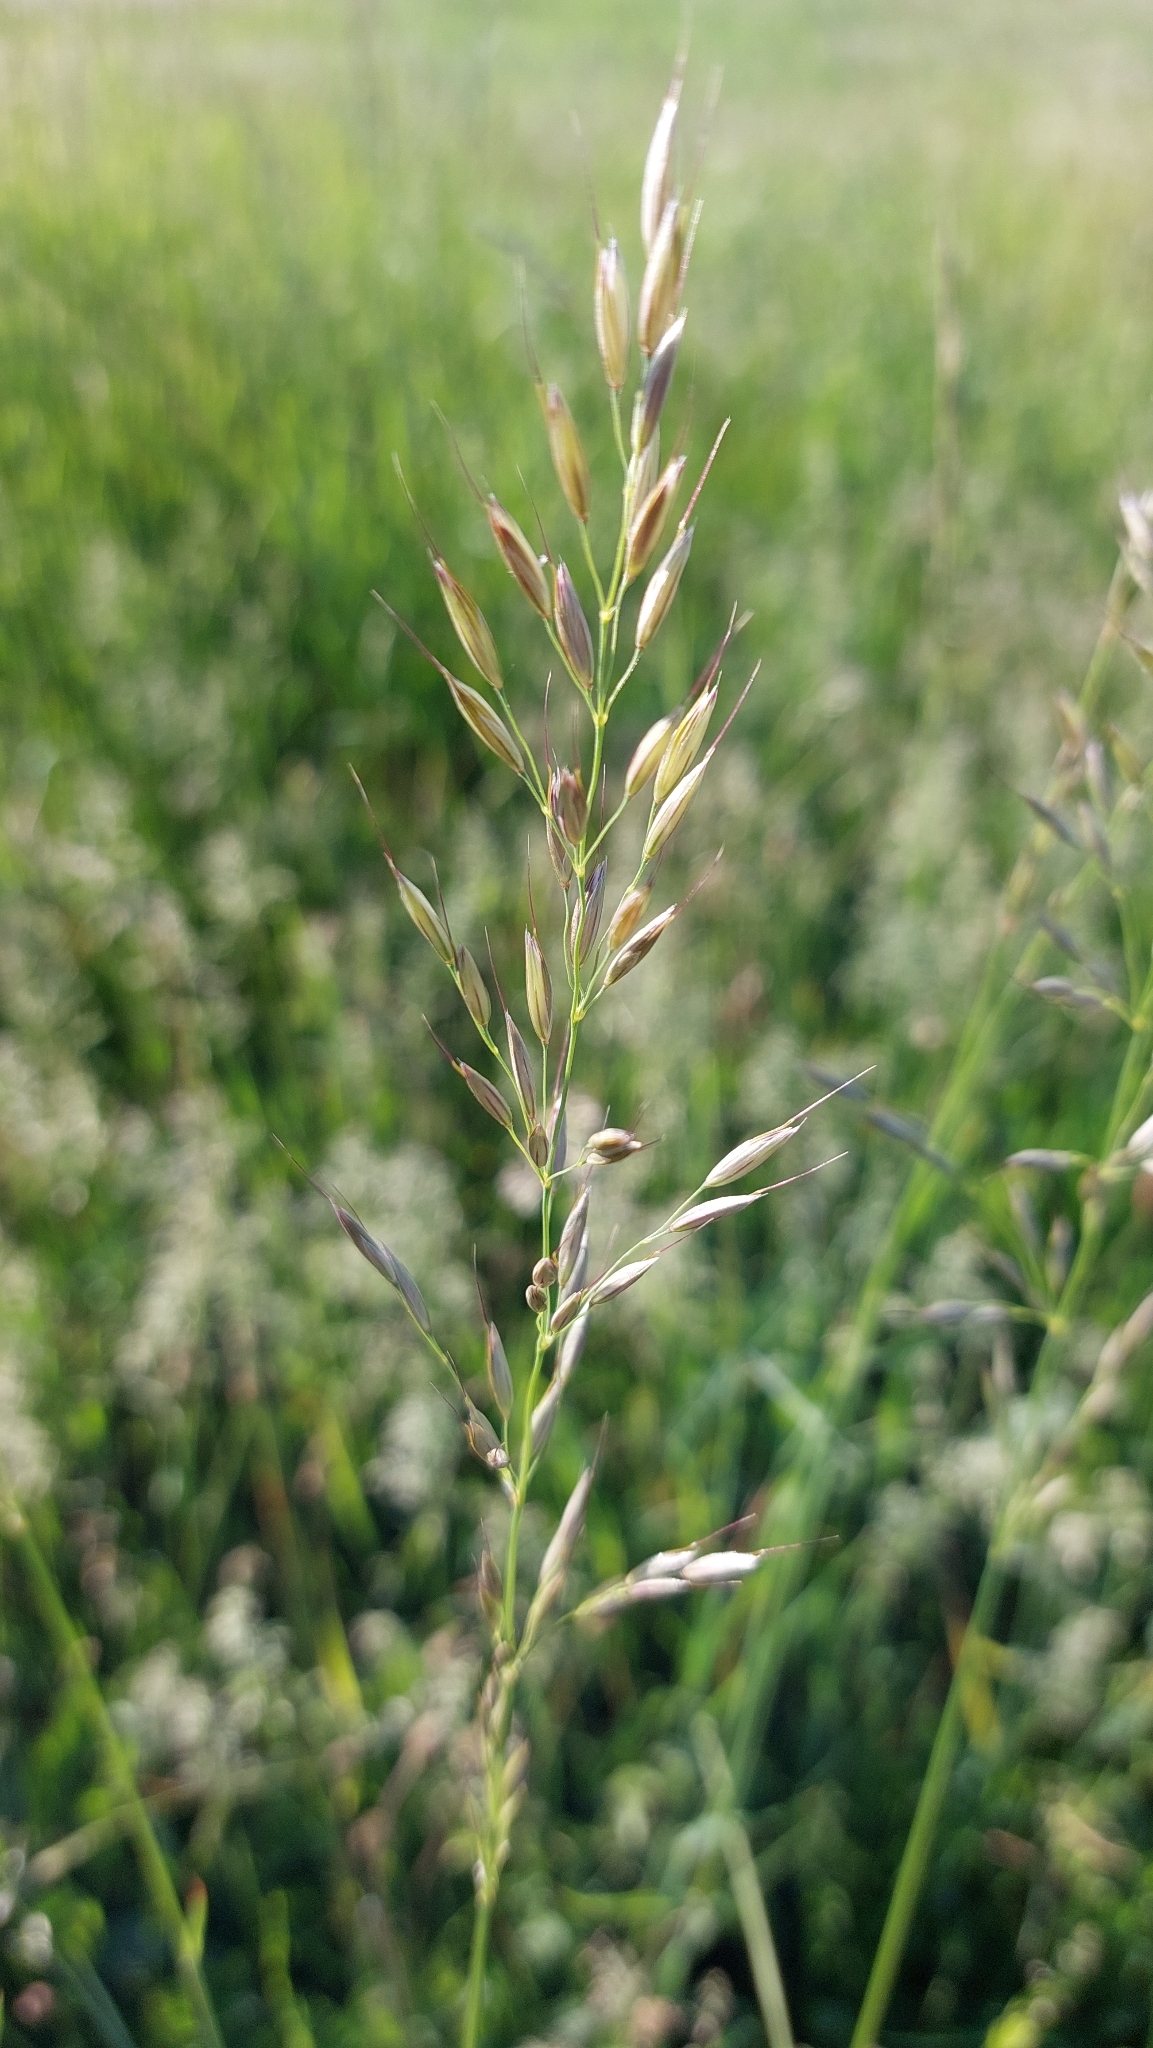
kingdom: Plantae
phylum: Tracheophyta
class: Liliopsida
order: Poales
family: Poaceae
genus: Arrhenatherum
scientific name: Arrhenatherum elatius
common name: Tall oatgrass
